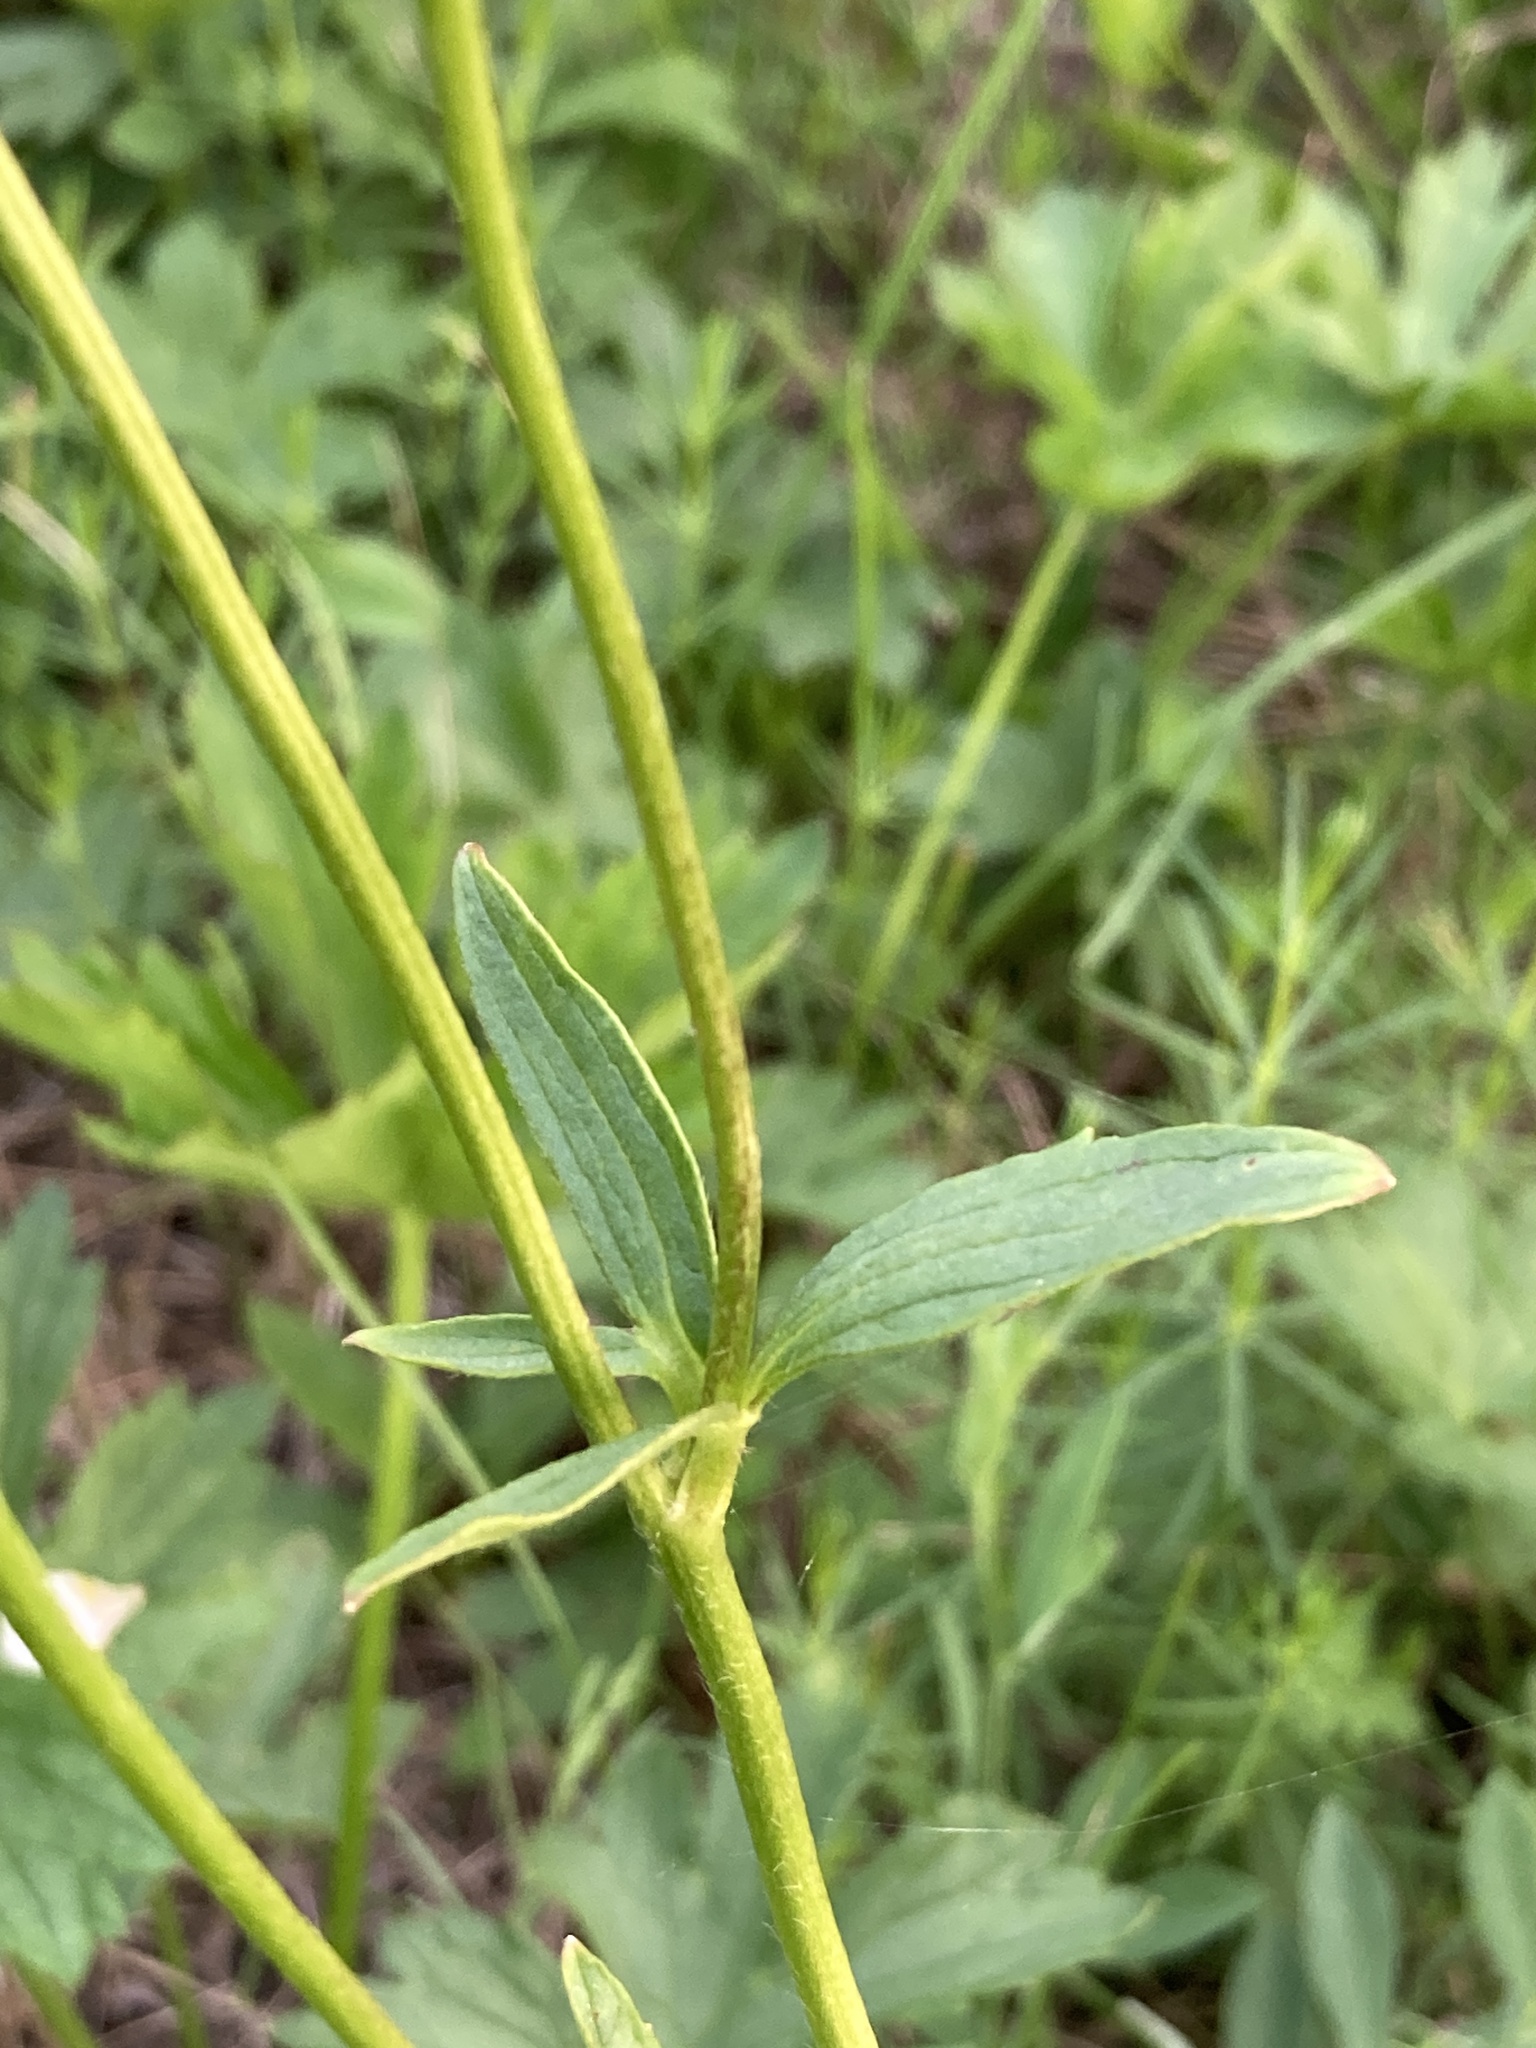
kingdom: Plantae
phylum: Tracheophyta
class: Magnoliopsida
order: Ranunculales
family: Ranunculaceae
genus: Ranunculus
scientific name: Ranunculus polyanthemos
